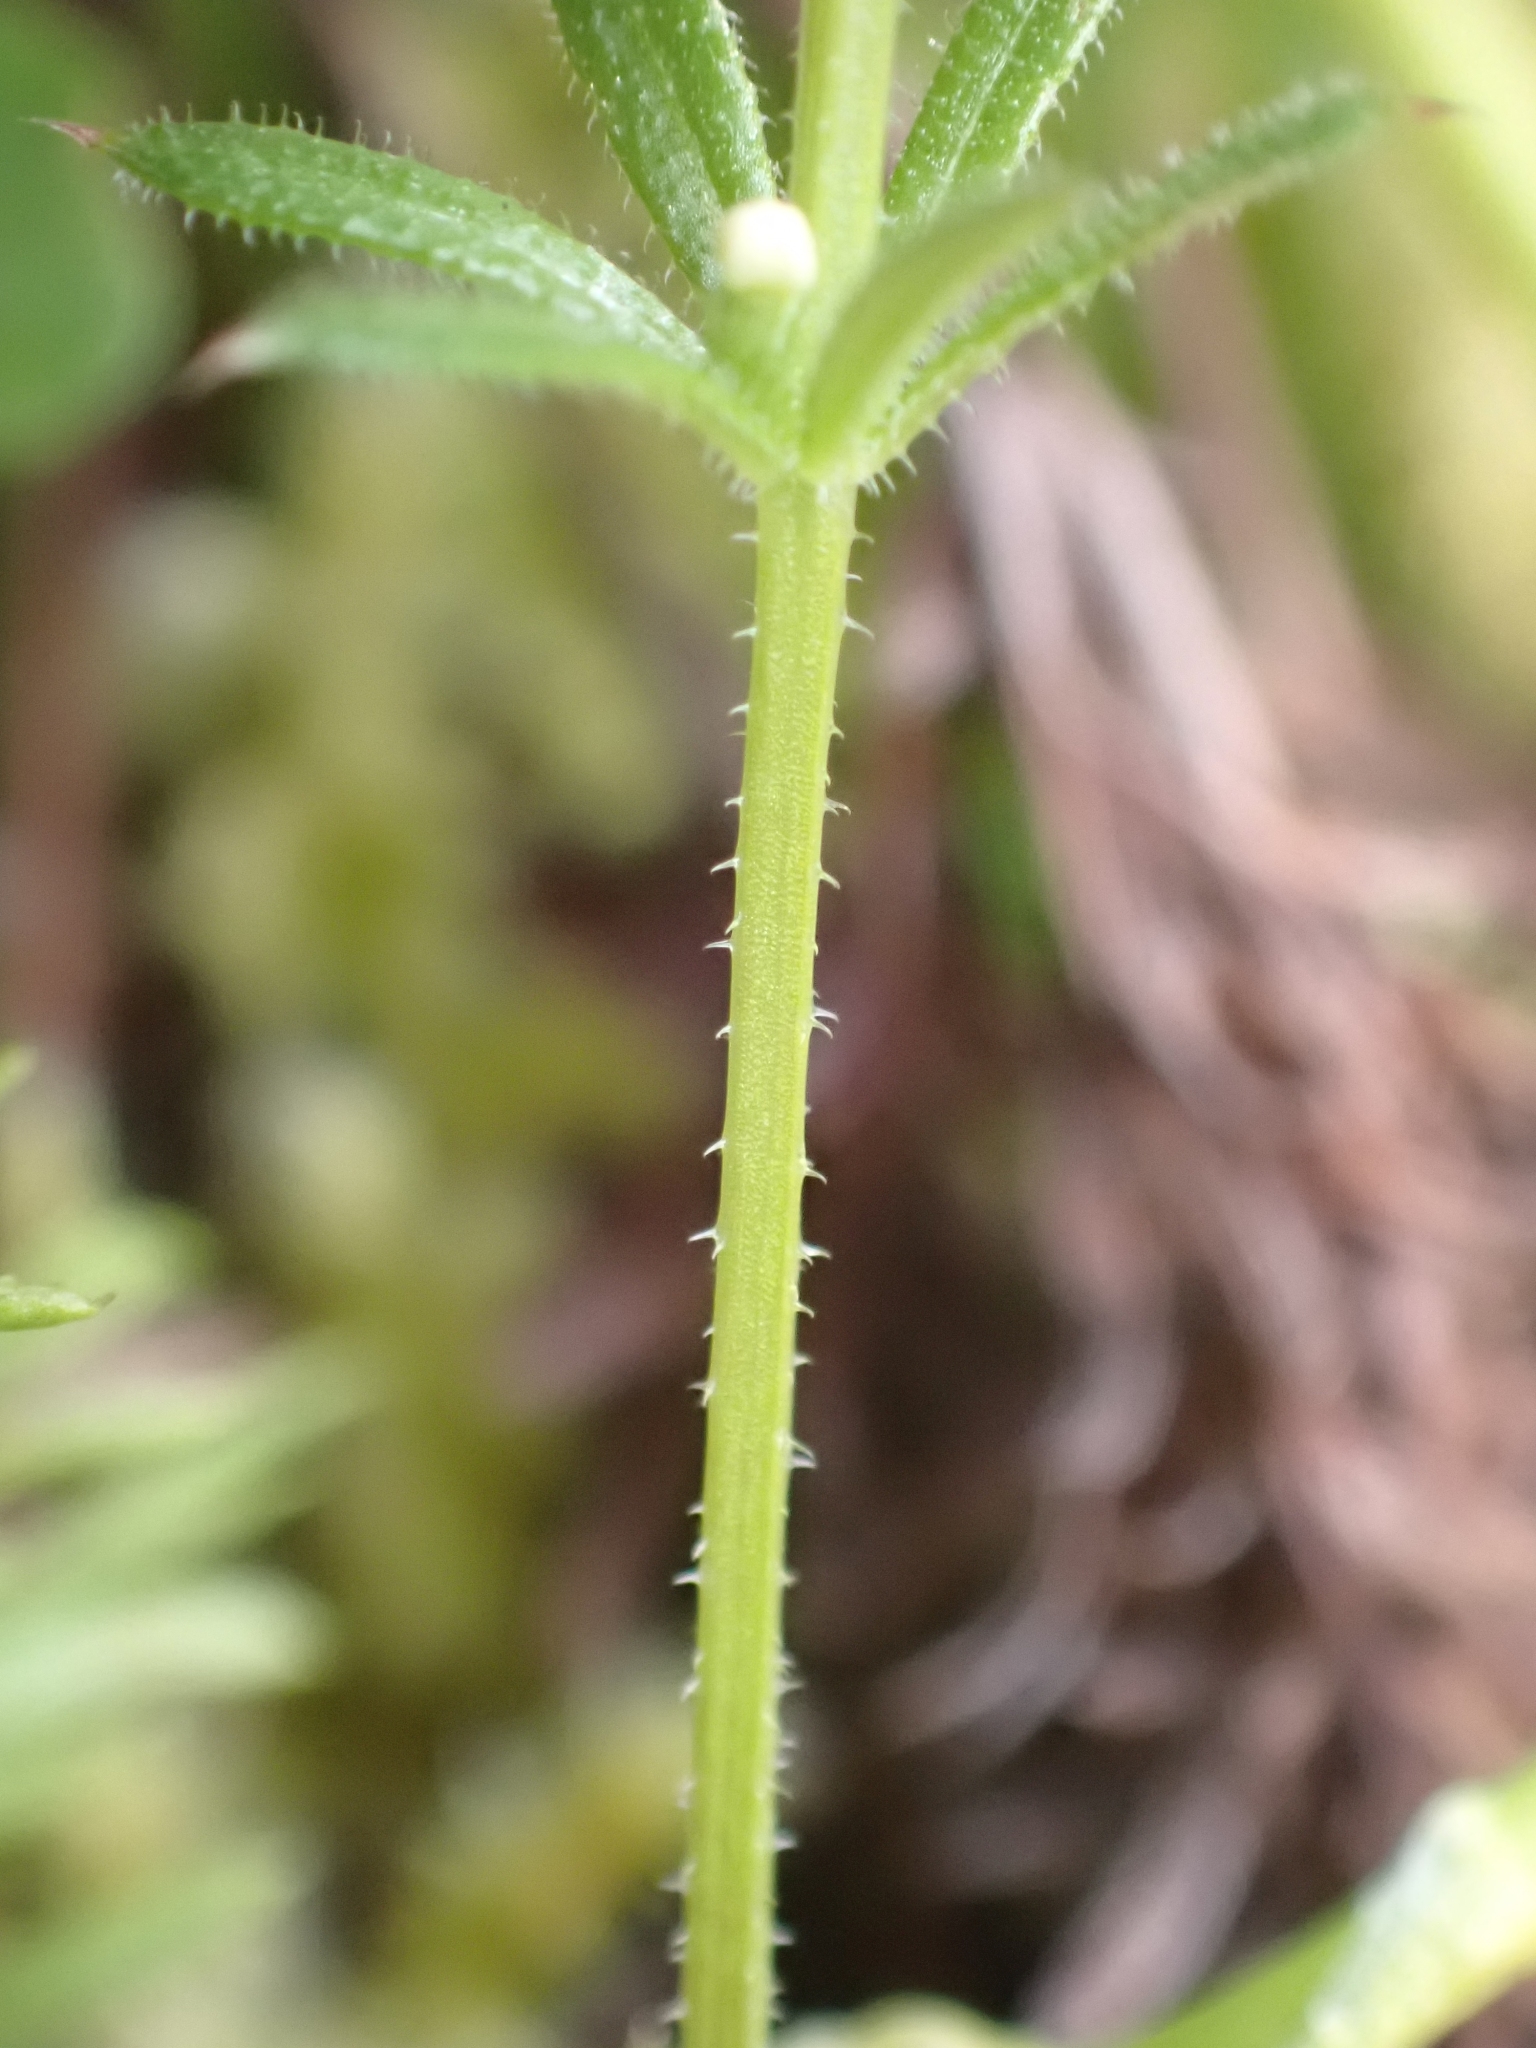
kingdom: Plantae
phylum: Tracheophyta
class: Magnoliopsida
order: Gentianales
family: Rubiaceae
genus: Galium
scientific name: Galium aparine
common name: Cleavers
